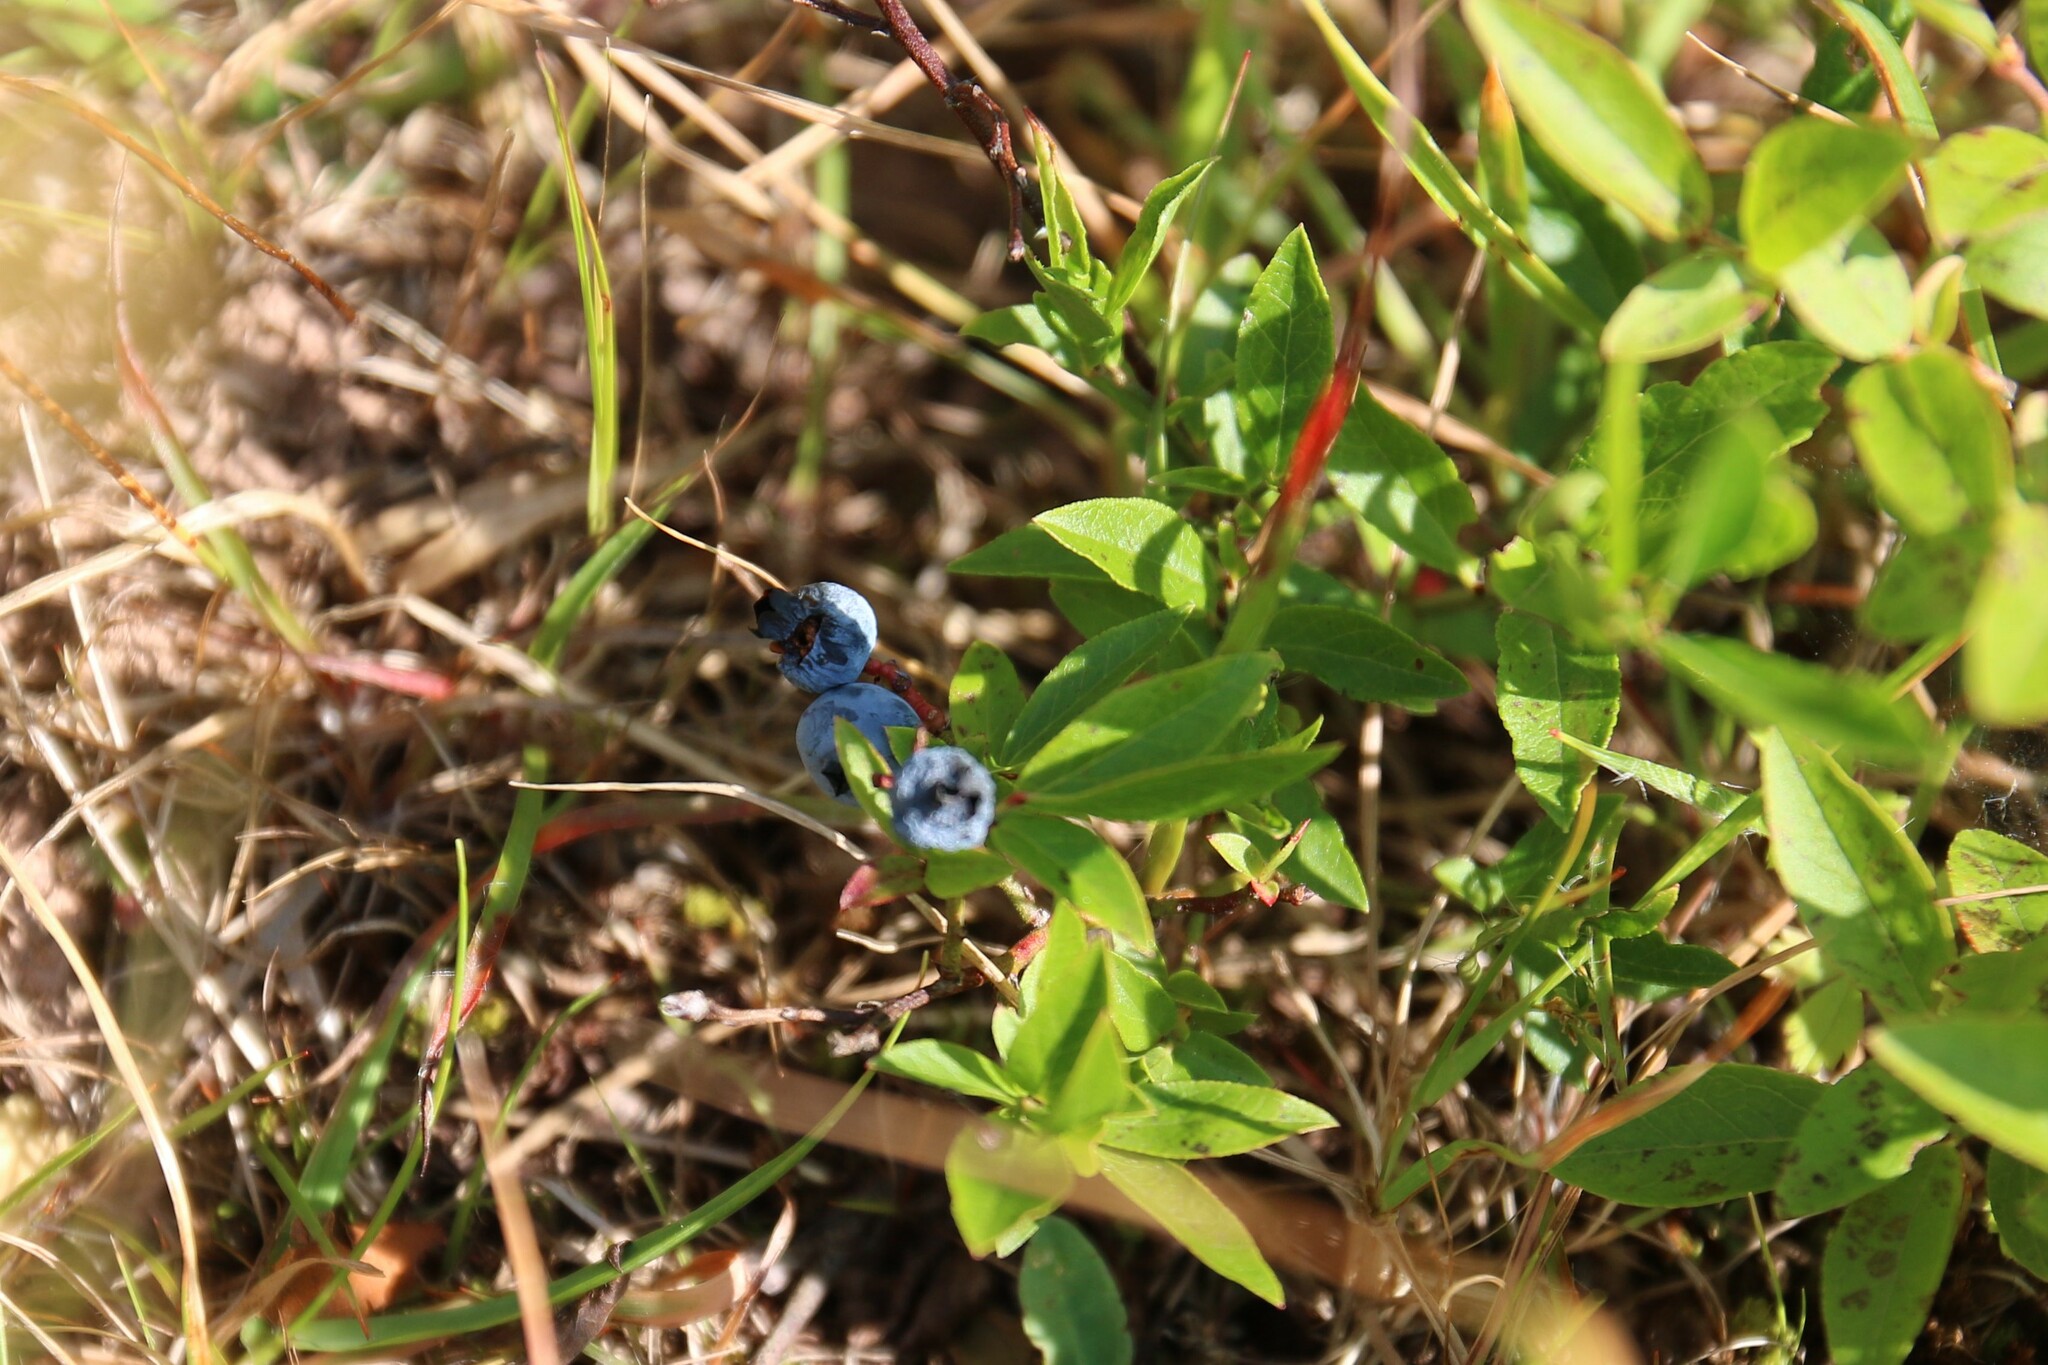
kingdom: Plantae
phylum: Tracheophyta
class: Magnoliopsida
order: Ericales
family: Ericaceae
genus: Vaccinium
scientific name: Vaccinium angustifolium
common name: Early lowbush blueberry
